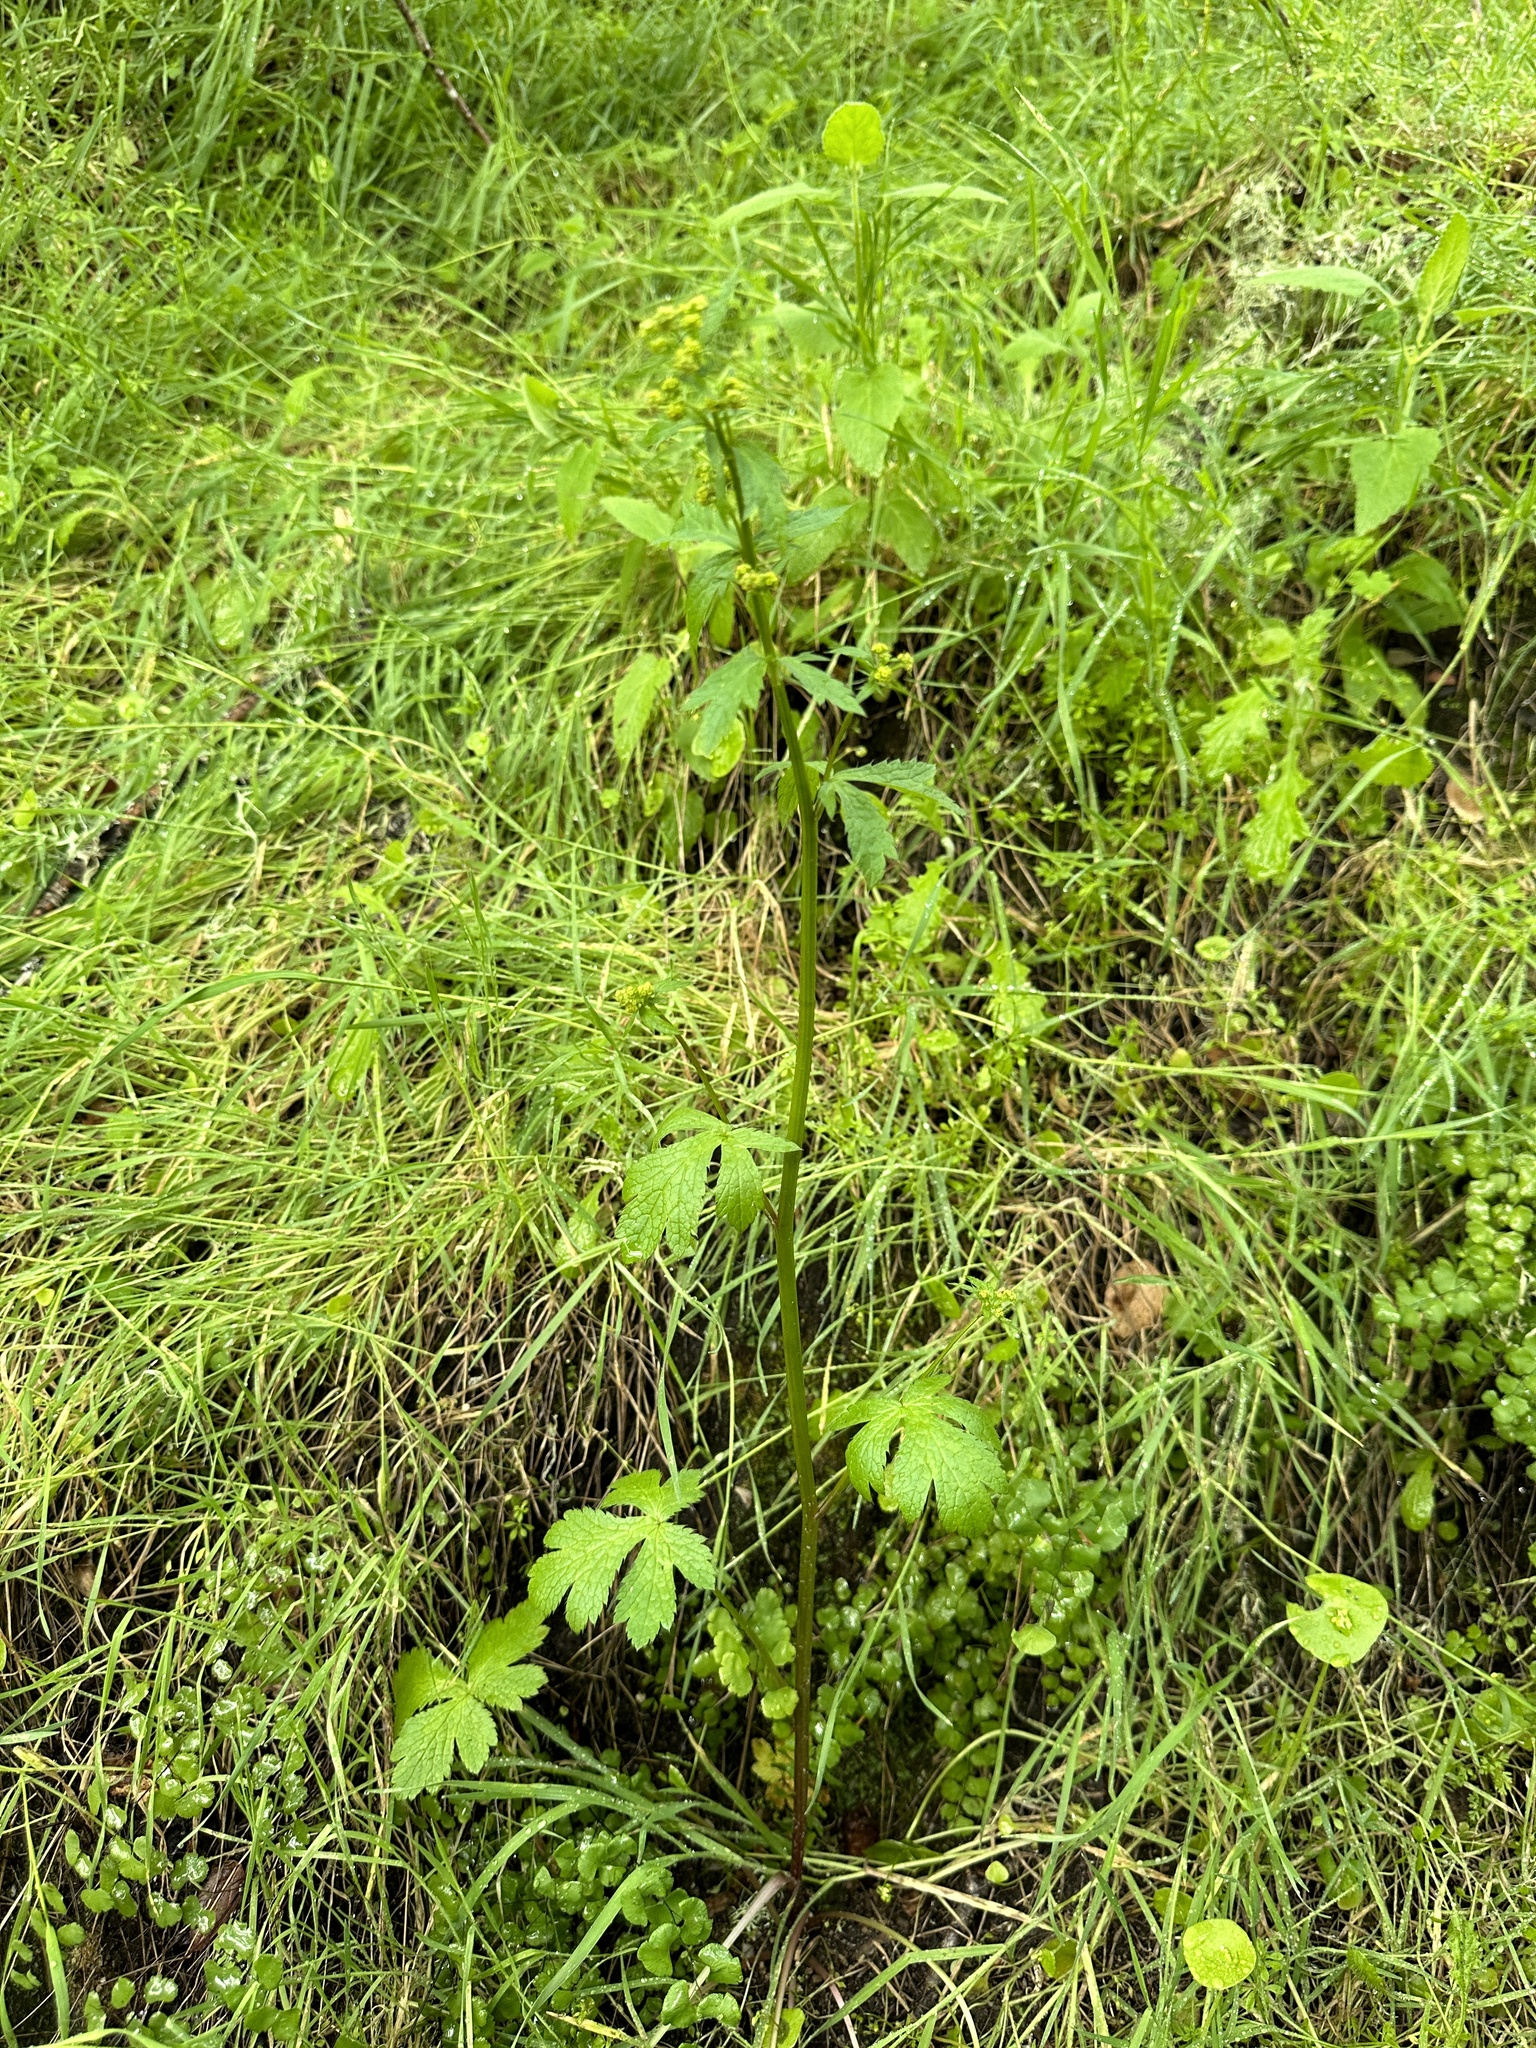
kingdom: Plantae
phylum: Tracheophyta
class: Magnoliopsida
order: Apiales
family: Apiaceae
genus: Sanicula
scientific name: Sanicula crassicaulis
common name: Western snakeroot
